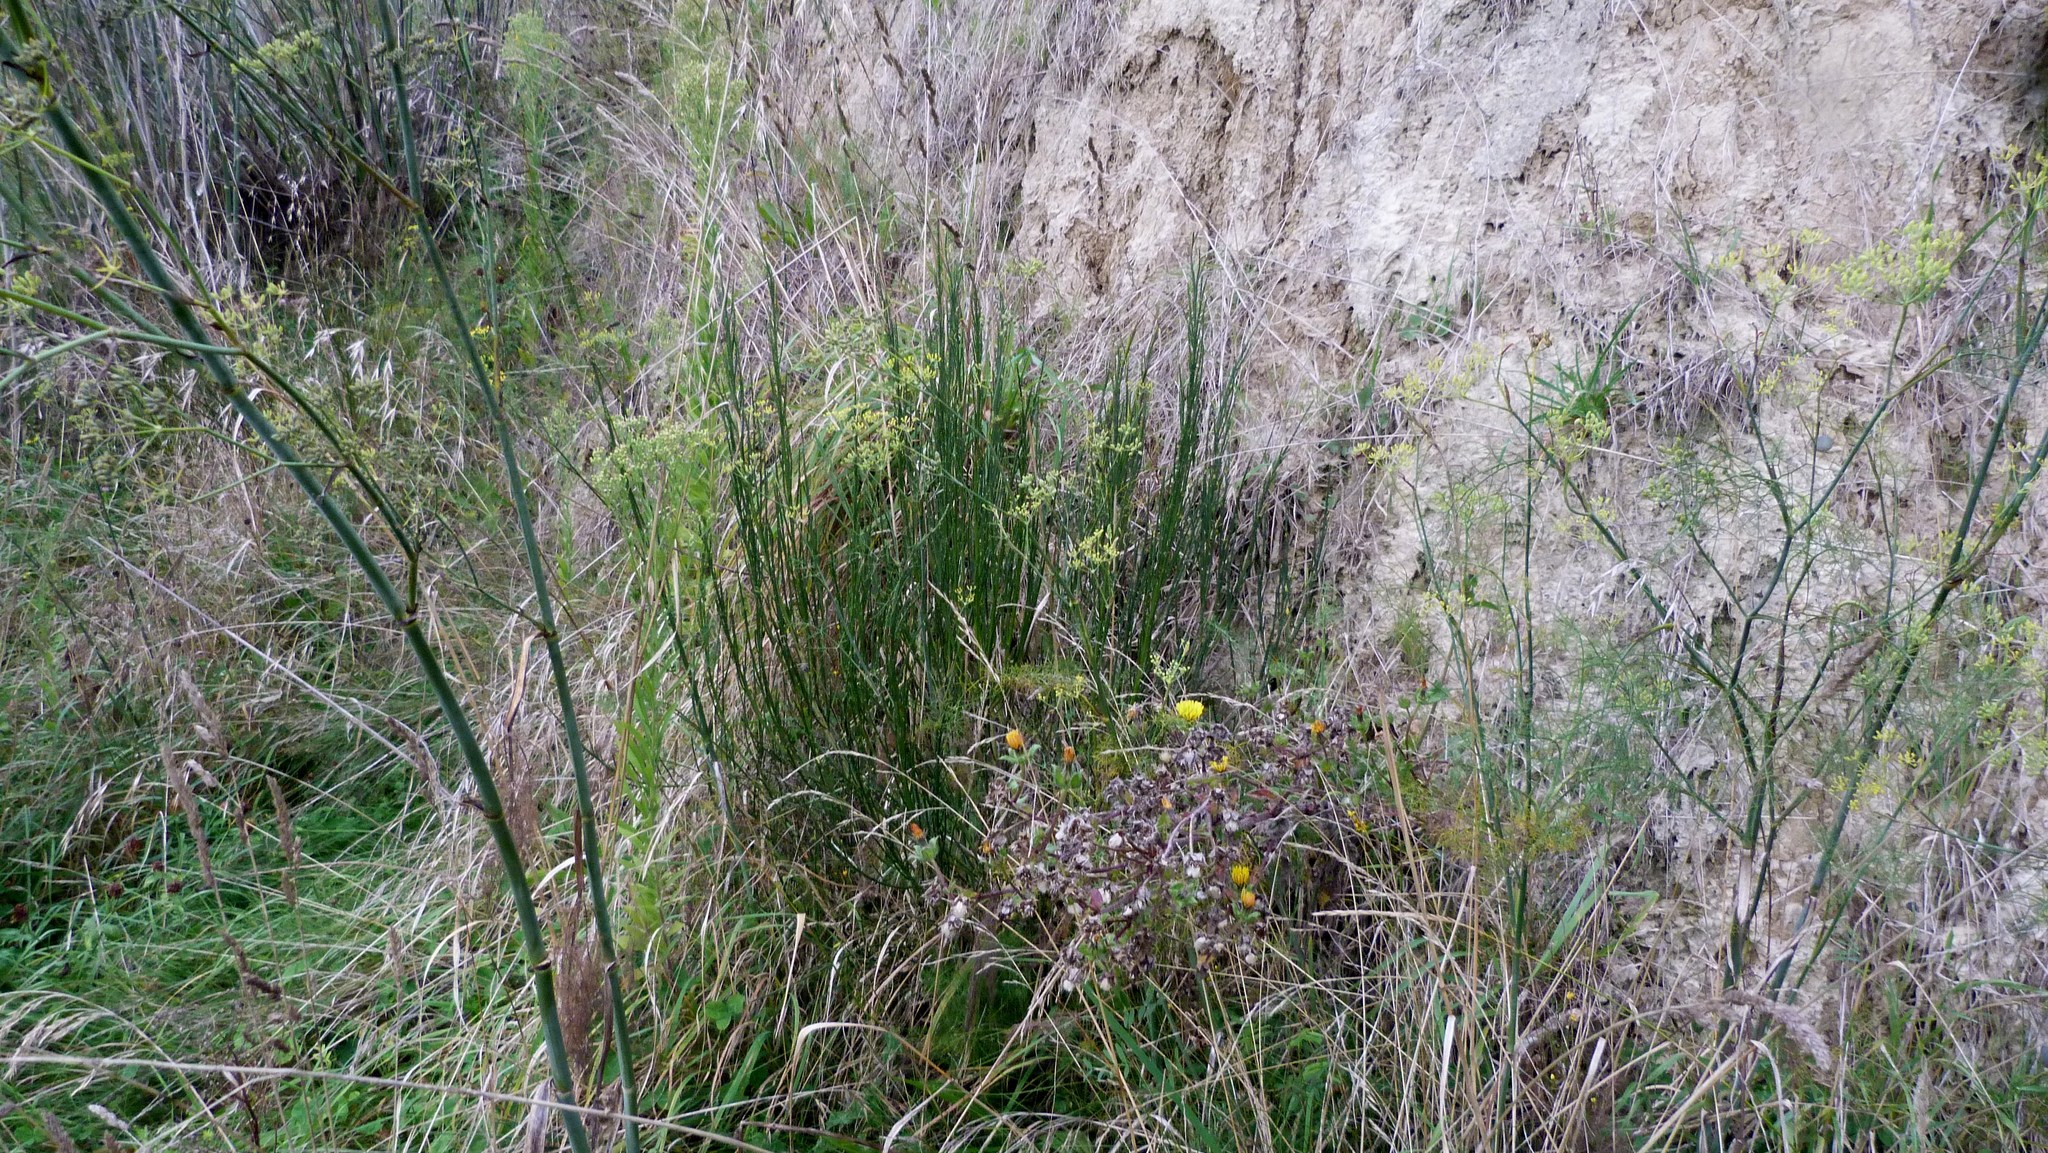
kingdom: Plantae
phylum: Tracheophyta
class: Magnoliopsida
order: Fabales
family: Fabaceae
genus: Cytisus
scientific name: Cytisus scoparius
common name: Scotch broom
